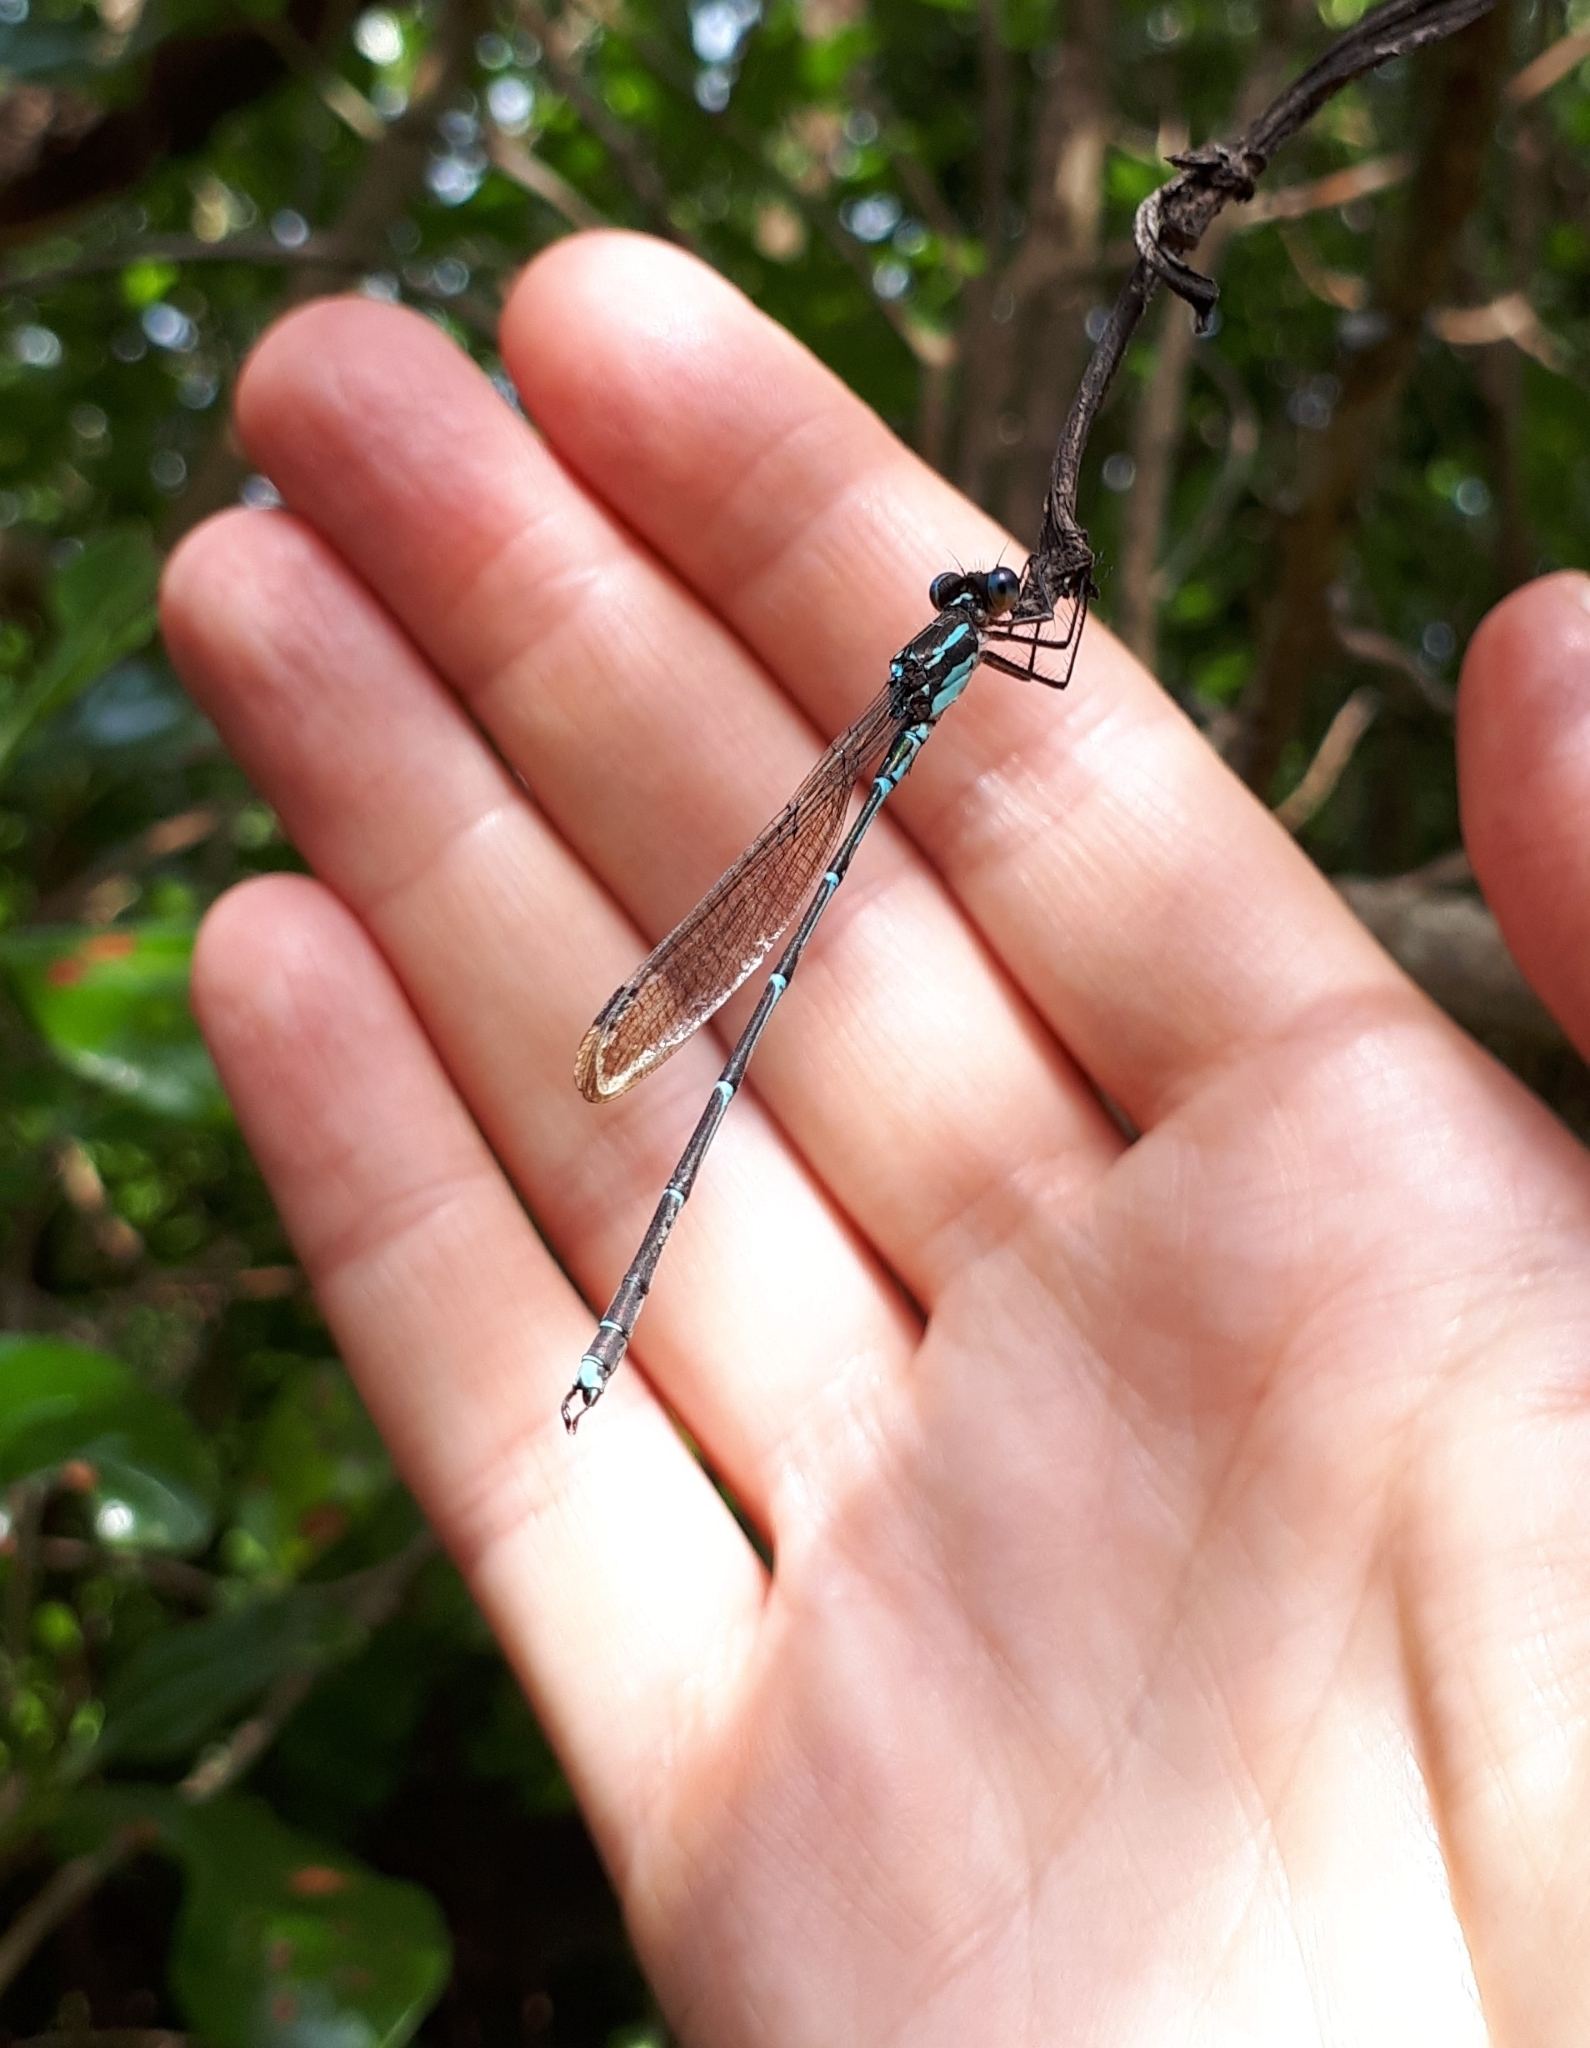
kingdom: Animalia
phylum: Arthropoda
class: Insecta
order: Odonata
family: Lestidae
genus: Austrolestes
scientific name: Austrolestes colensonis
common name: Blue damselfly
